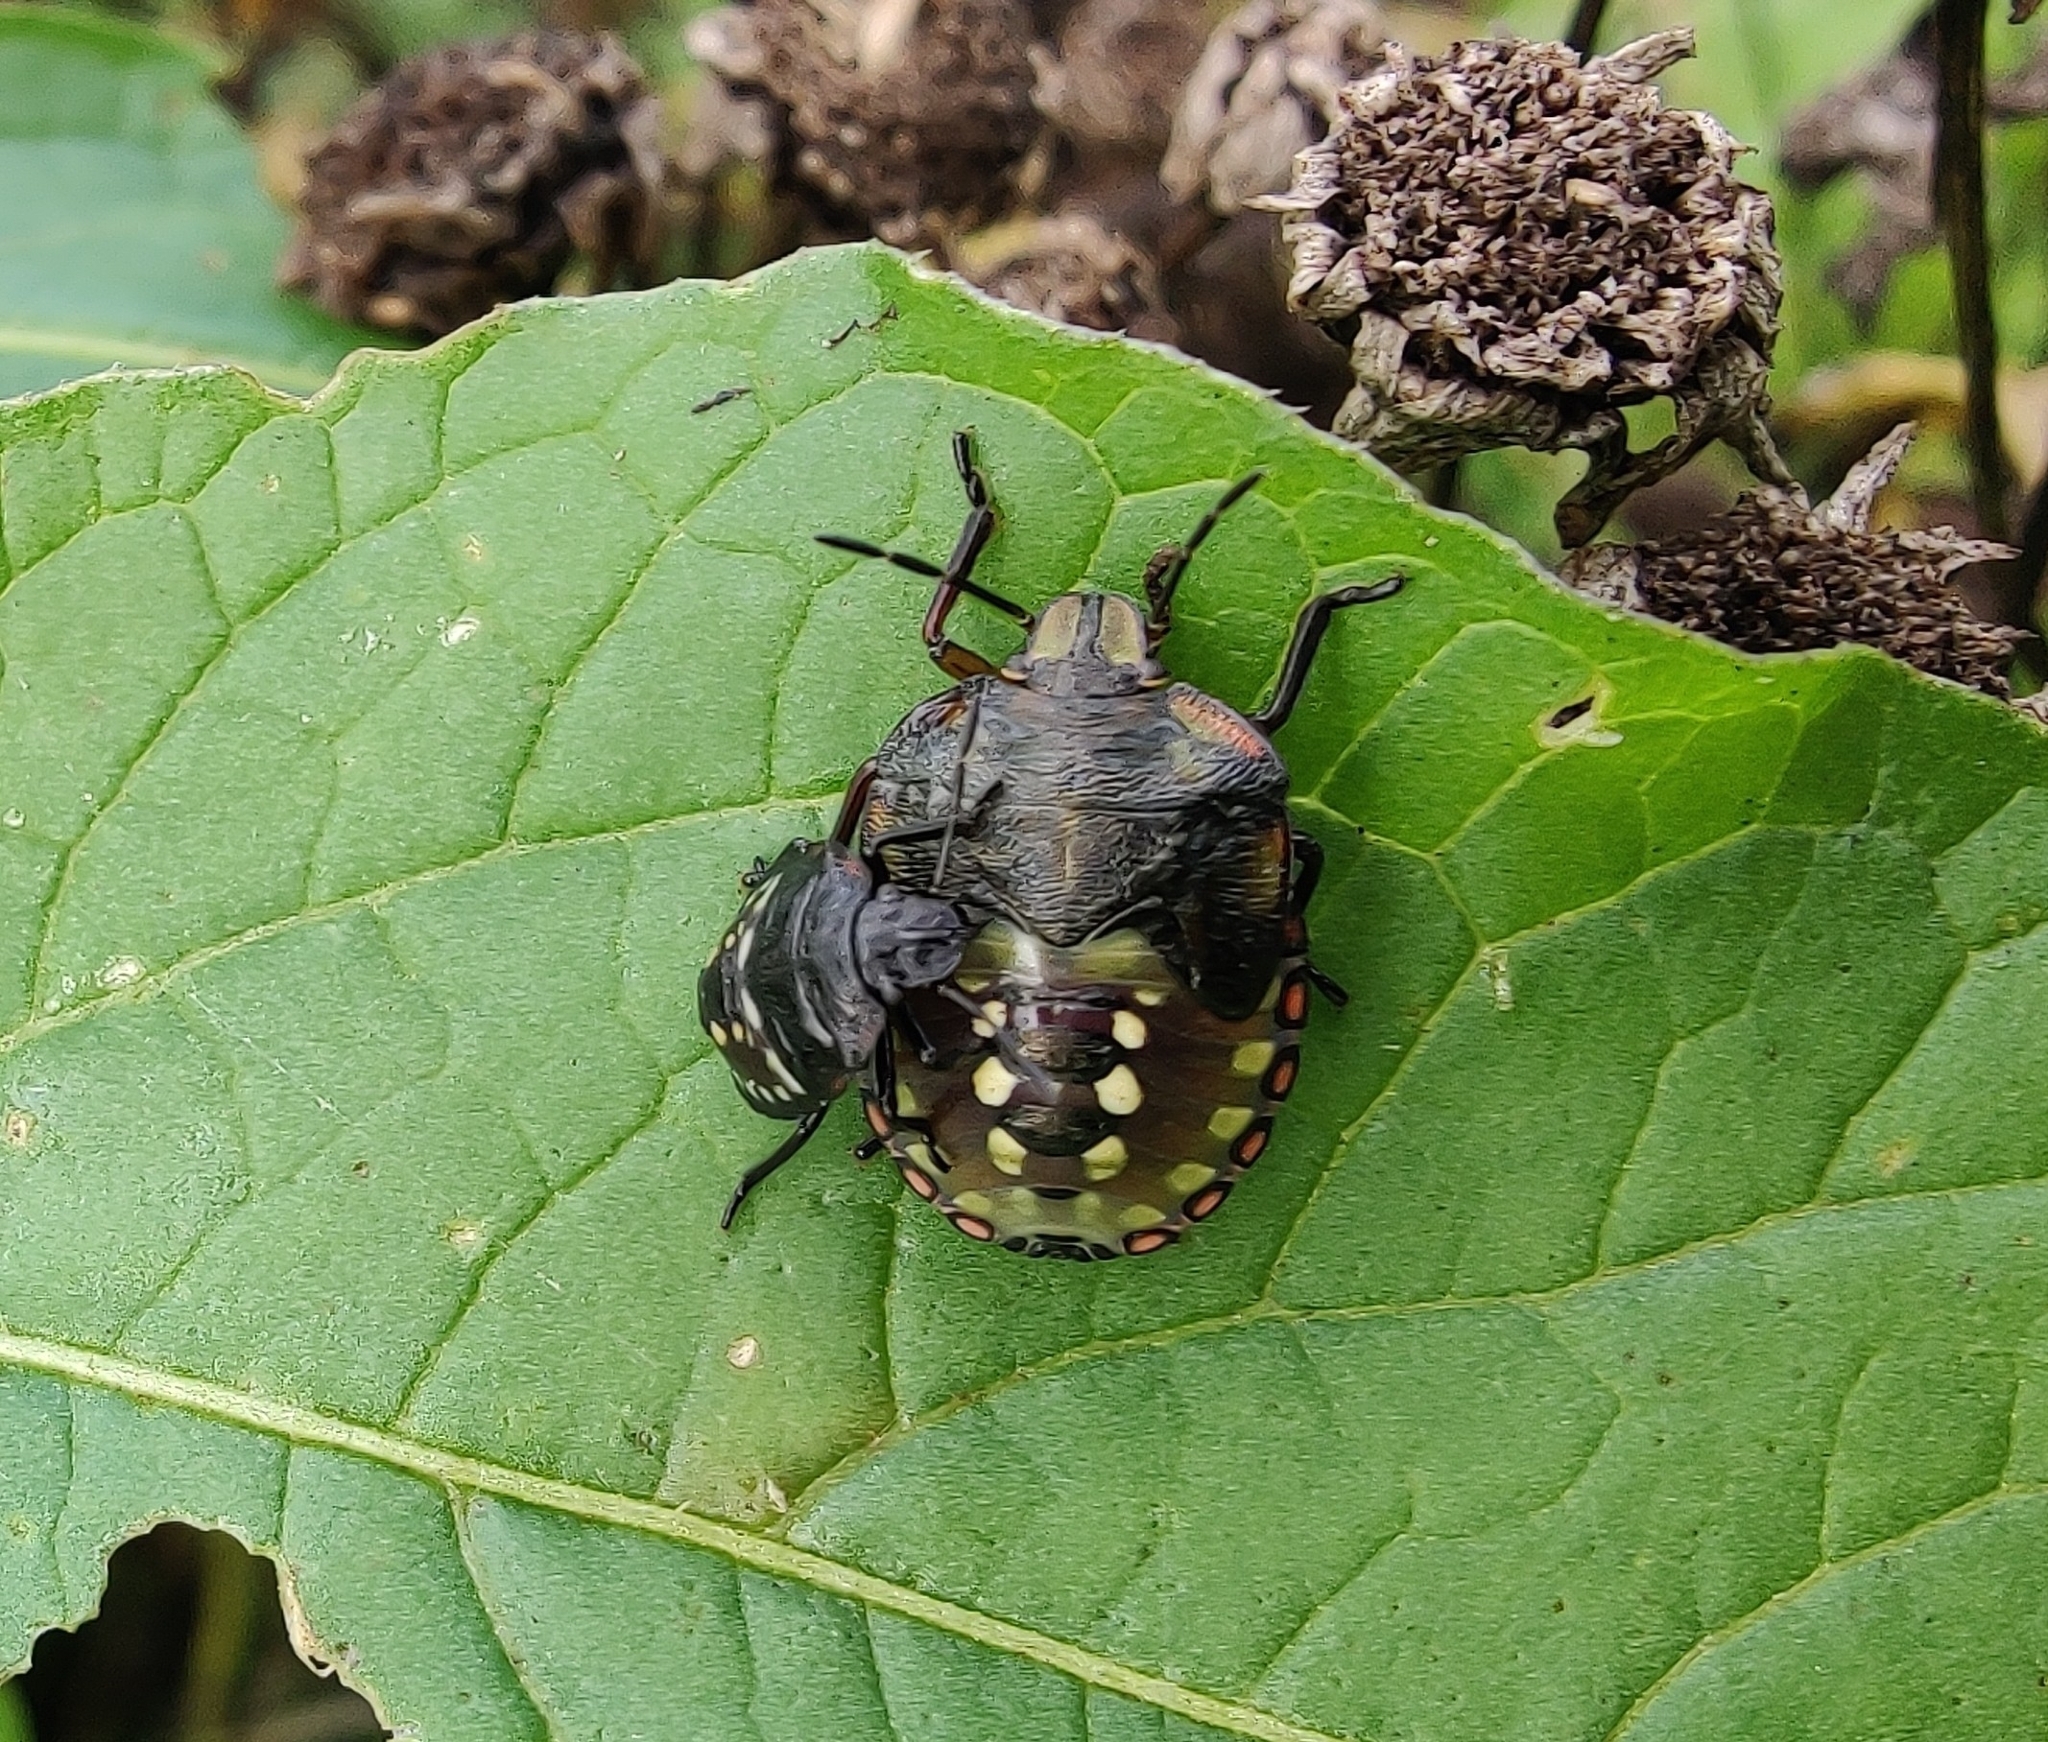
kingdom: Animalia
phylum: Arthropoda
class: Insecta
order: Hemiptera
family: Pentatomidae
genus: Nezara
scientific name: Nezara viridula
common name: Southern green stink bug
